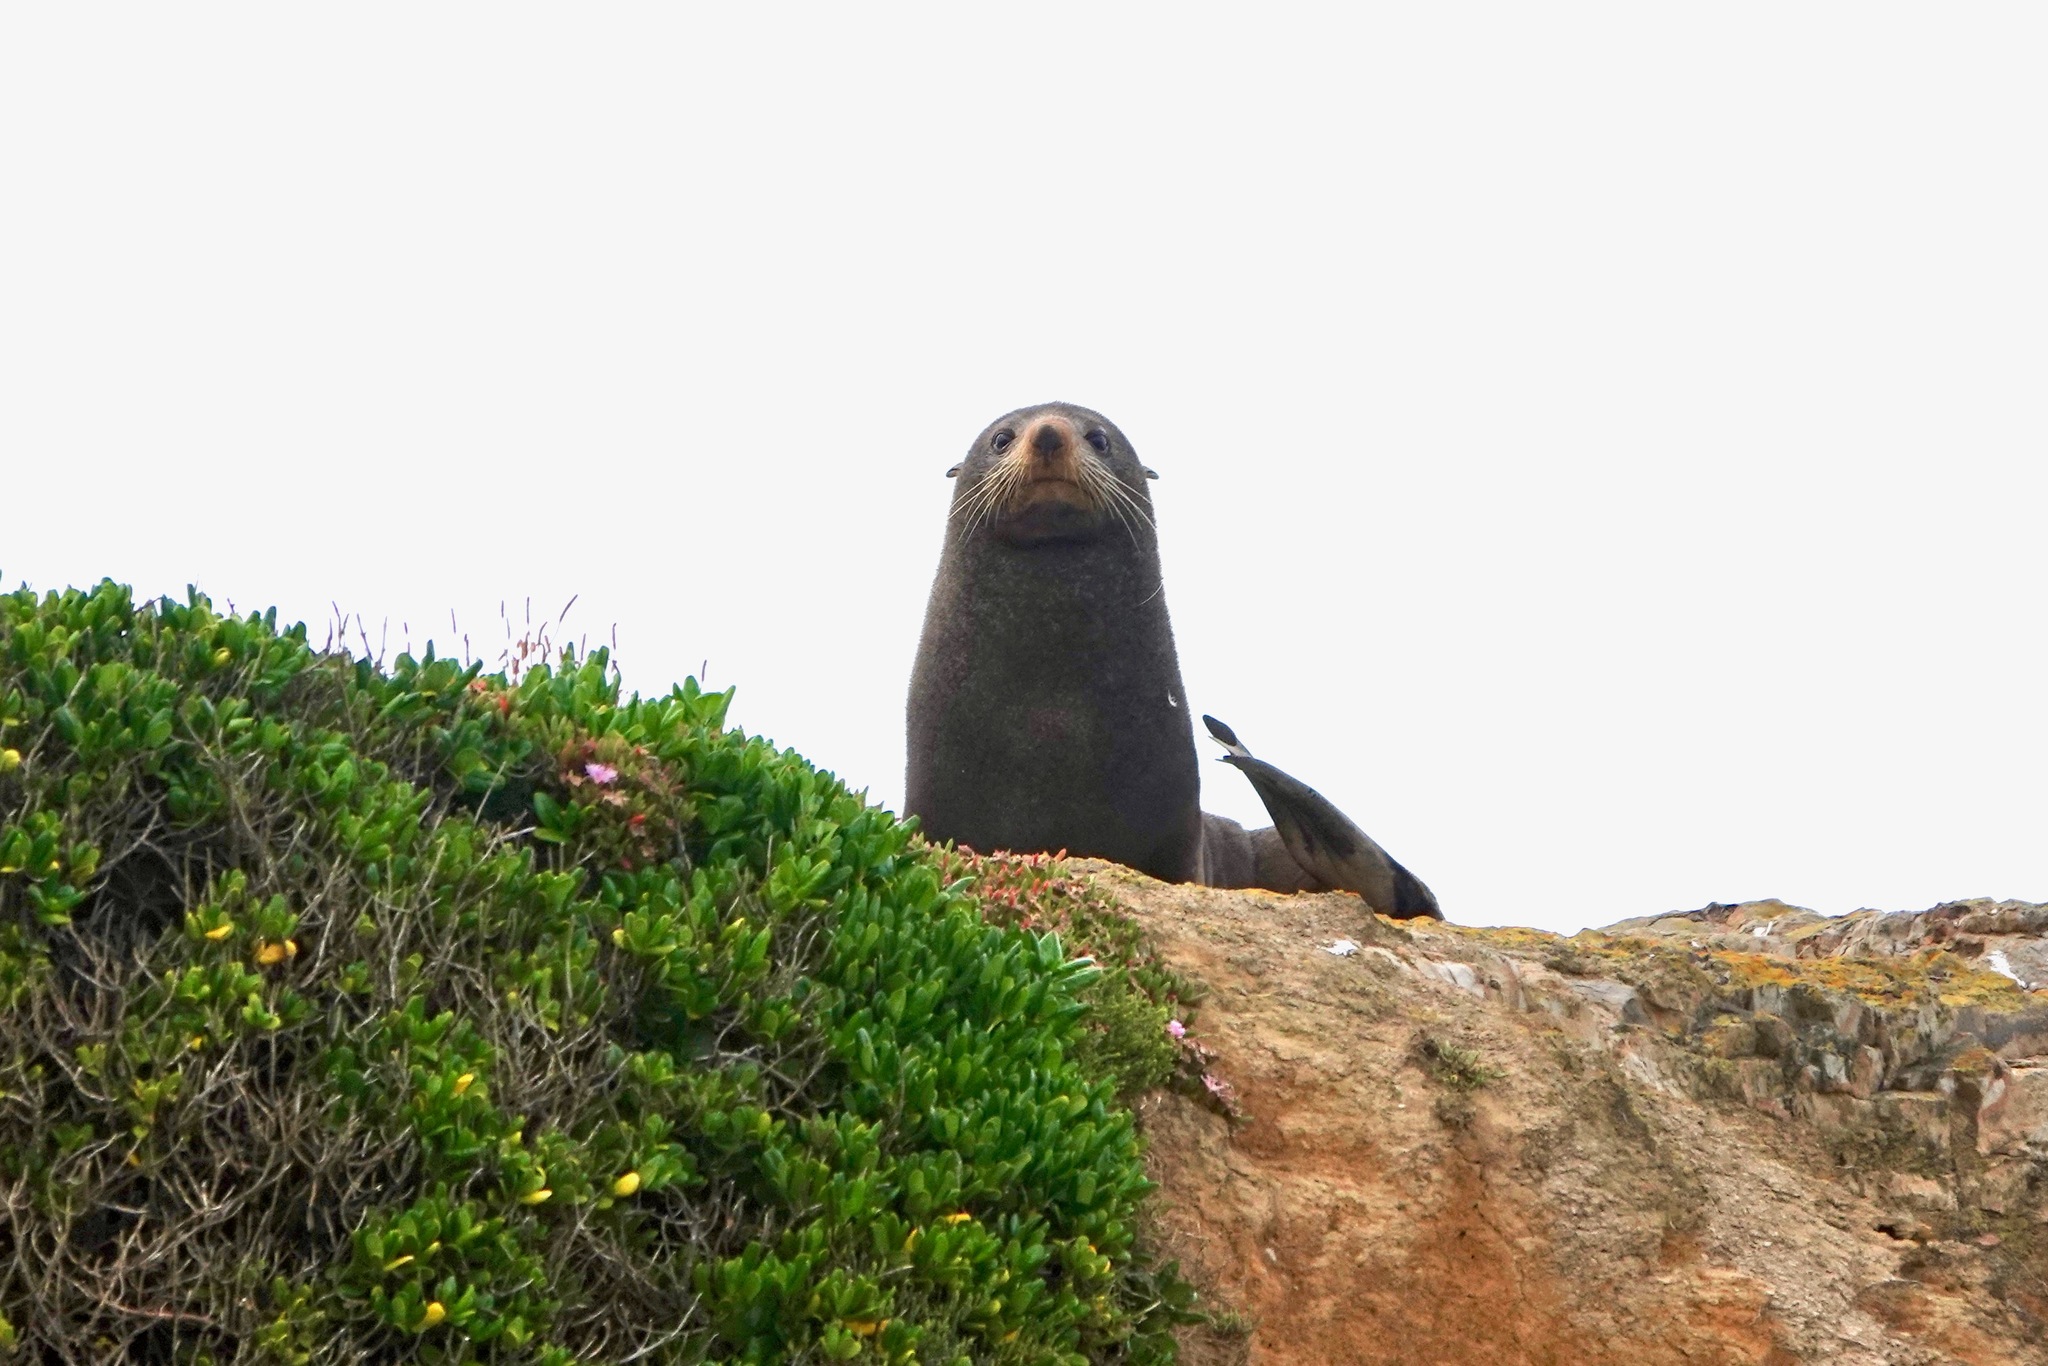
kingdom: Animalia
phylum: Chordata
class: Mammalia
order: Carnivora
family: Otariidae
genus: Arctocephalus
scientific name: Arctocephalus forsteri
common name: New zealand fur seal
